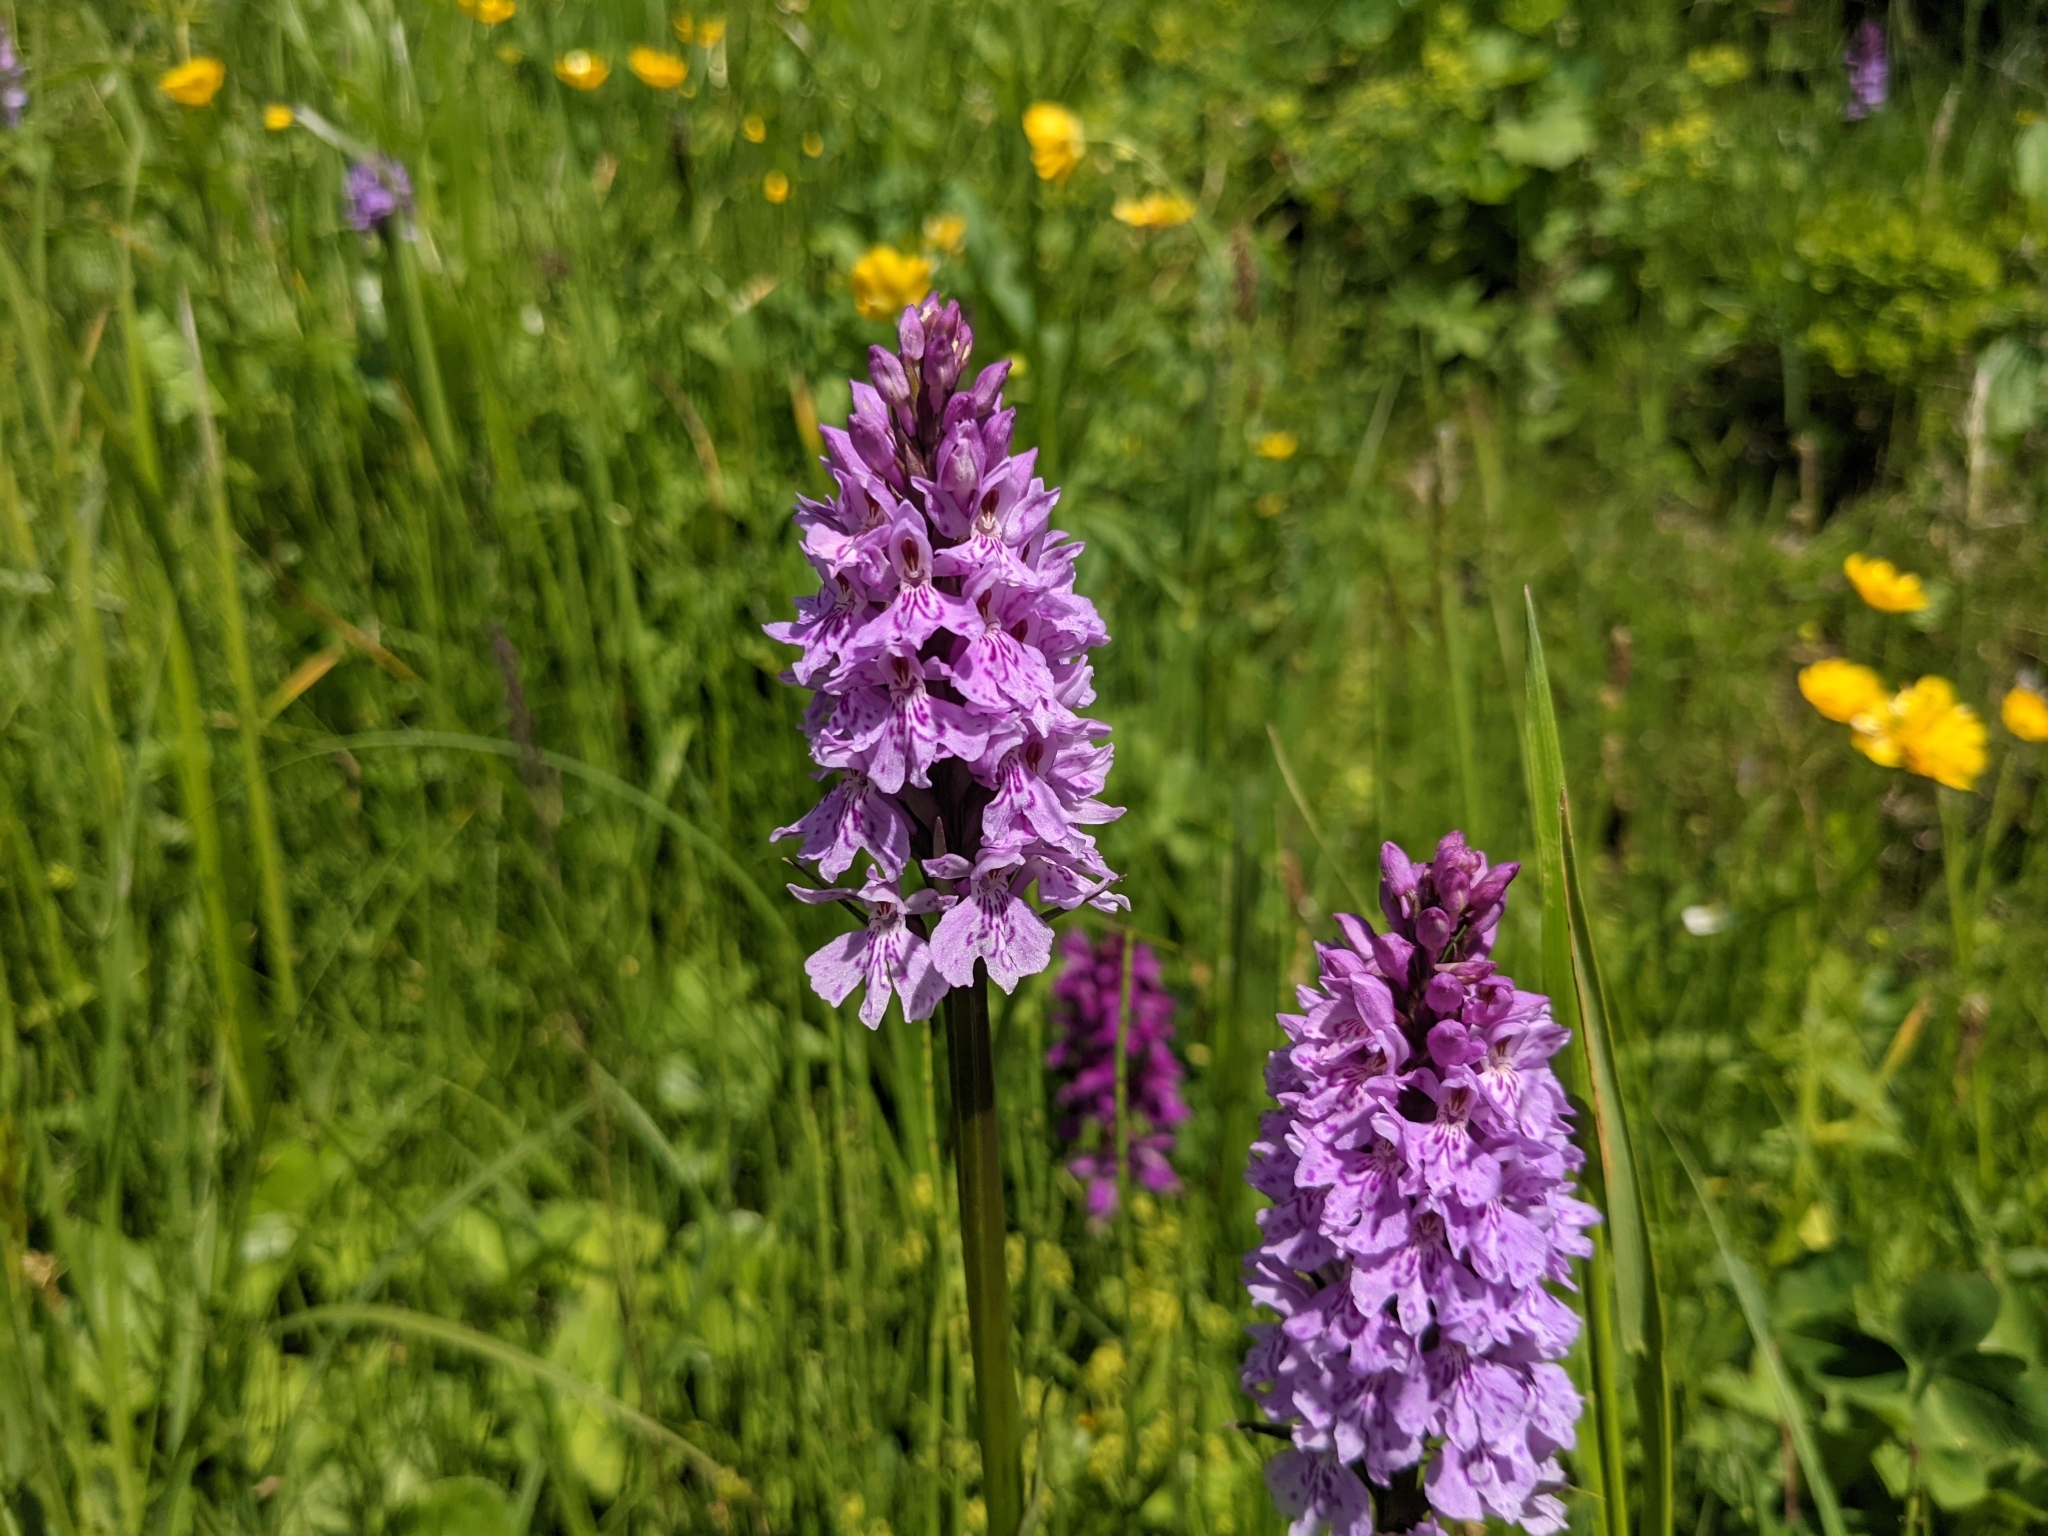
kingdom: Plantae
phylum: Tracheophyta
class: Liliopsida
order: Asparagales
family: Orchidaceae
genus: Dactylorhiza
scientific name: Dactylorhiza maculata
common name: Heath spotted-orchid
